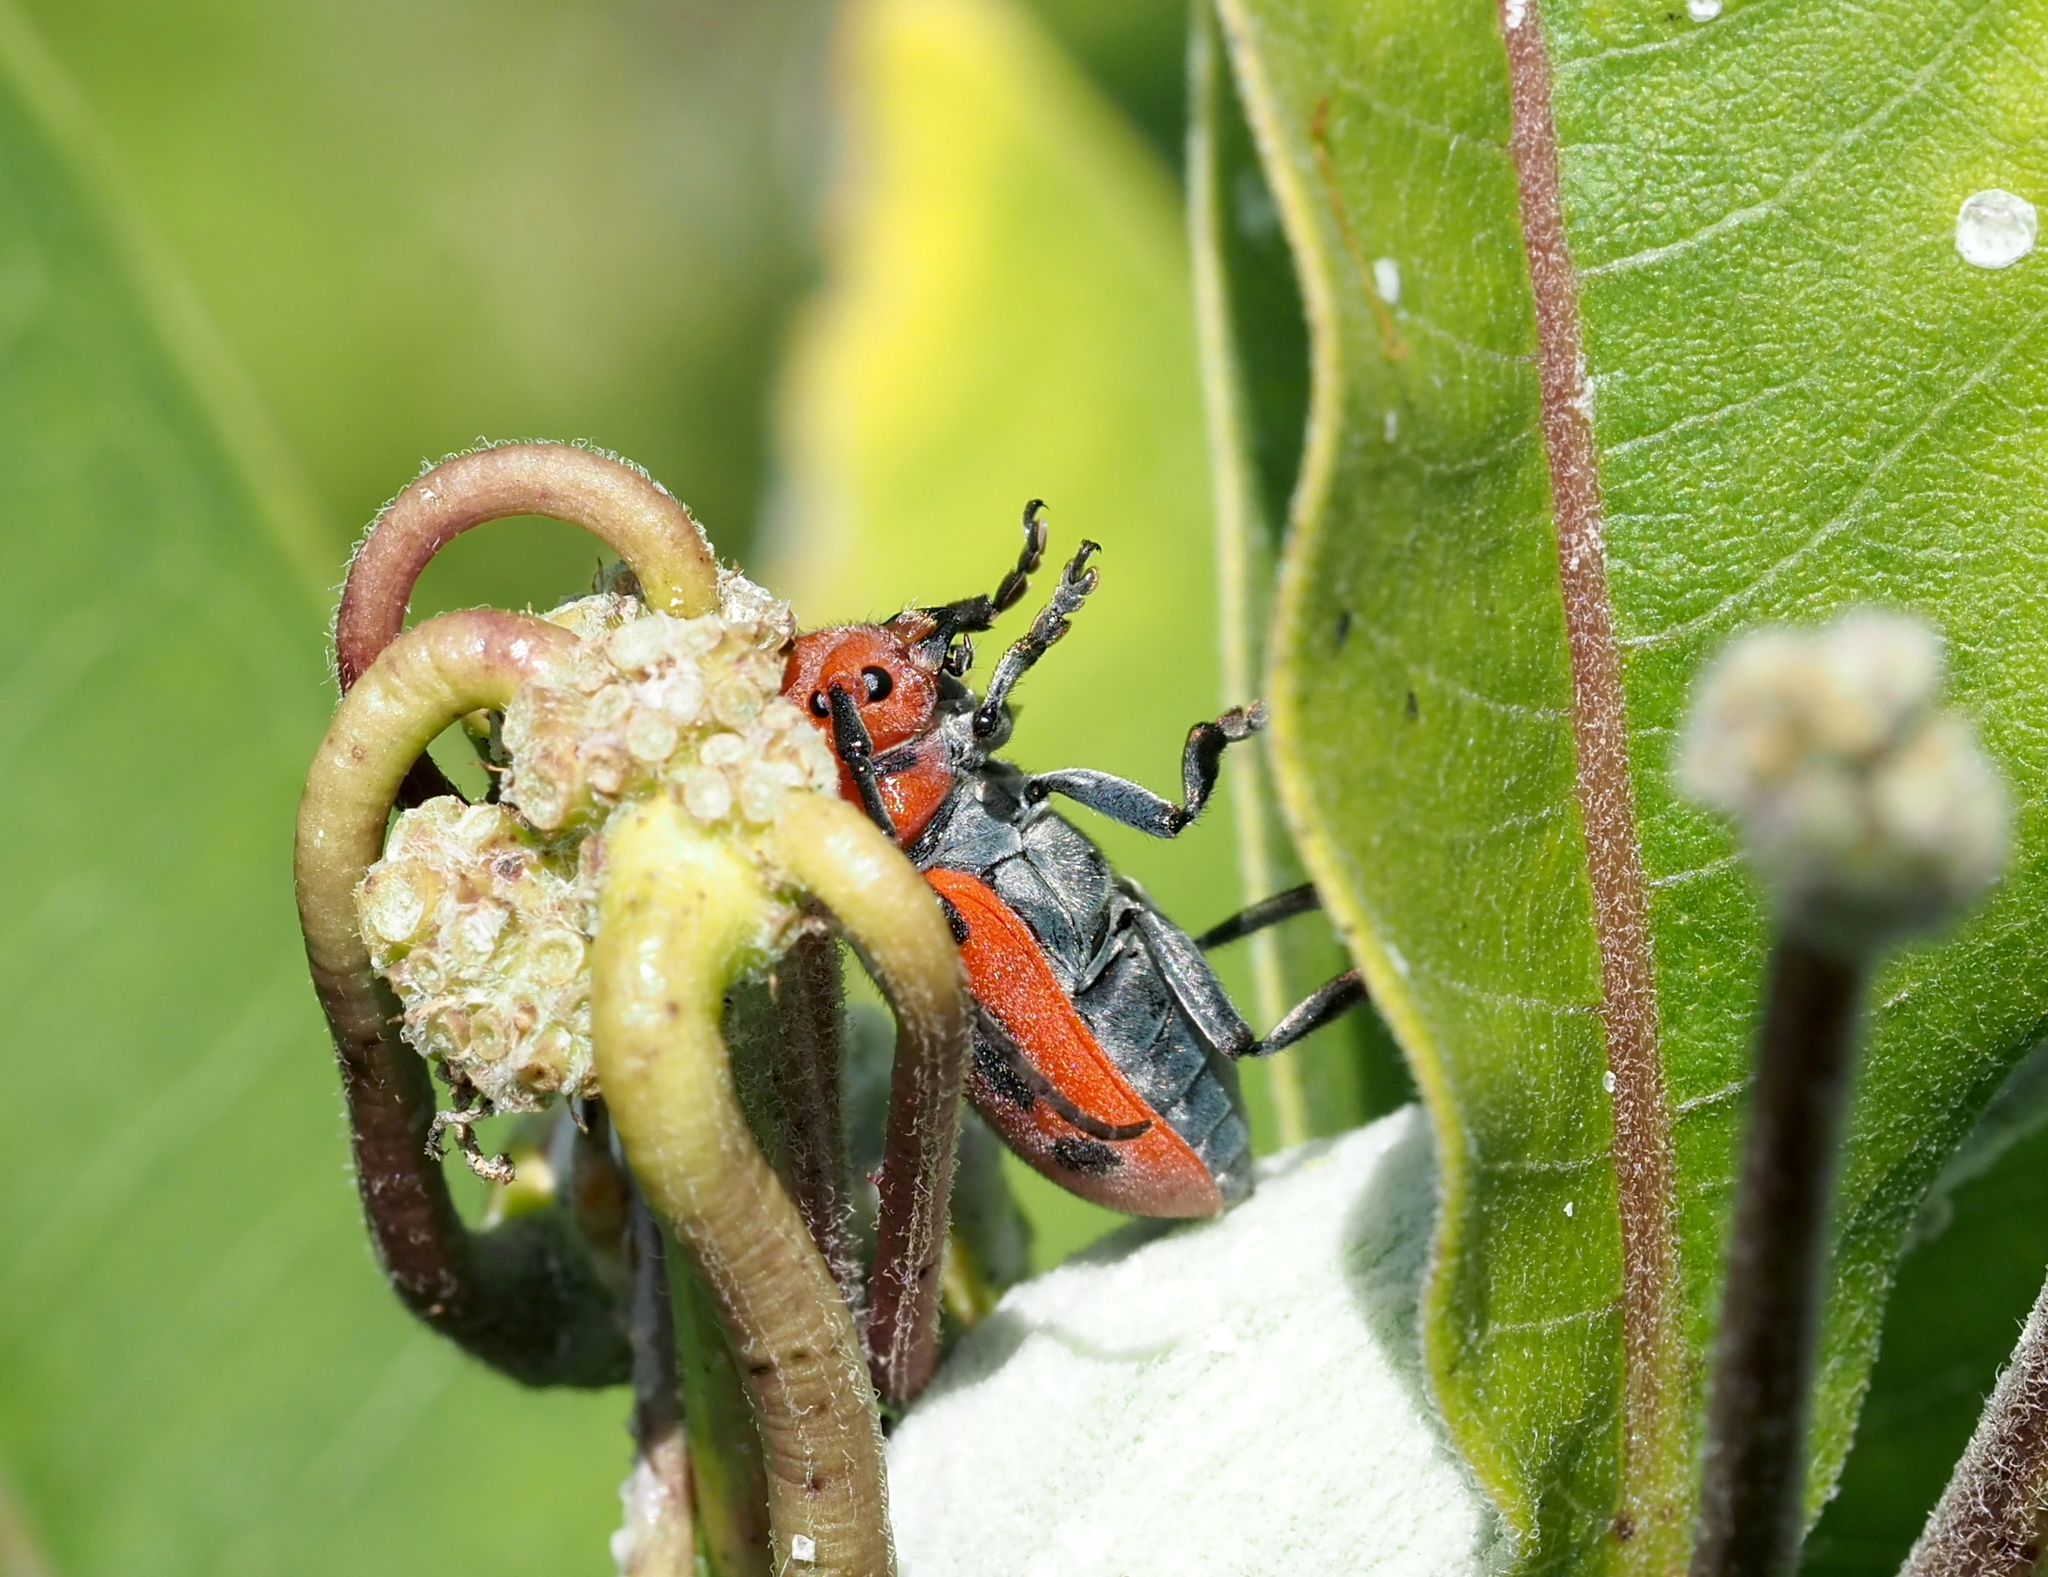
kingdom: Animalia
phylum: Arthropoda
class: Insecta
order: Coleoptera
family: Cerambycidae
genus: Tetraopes
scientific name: Tetraopes tetrophthalmus
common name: Red milkweed beetle
